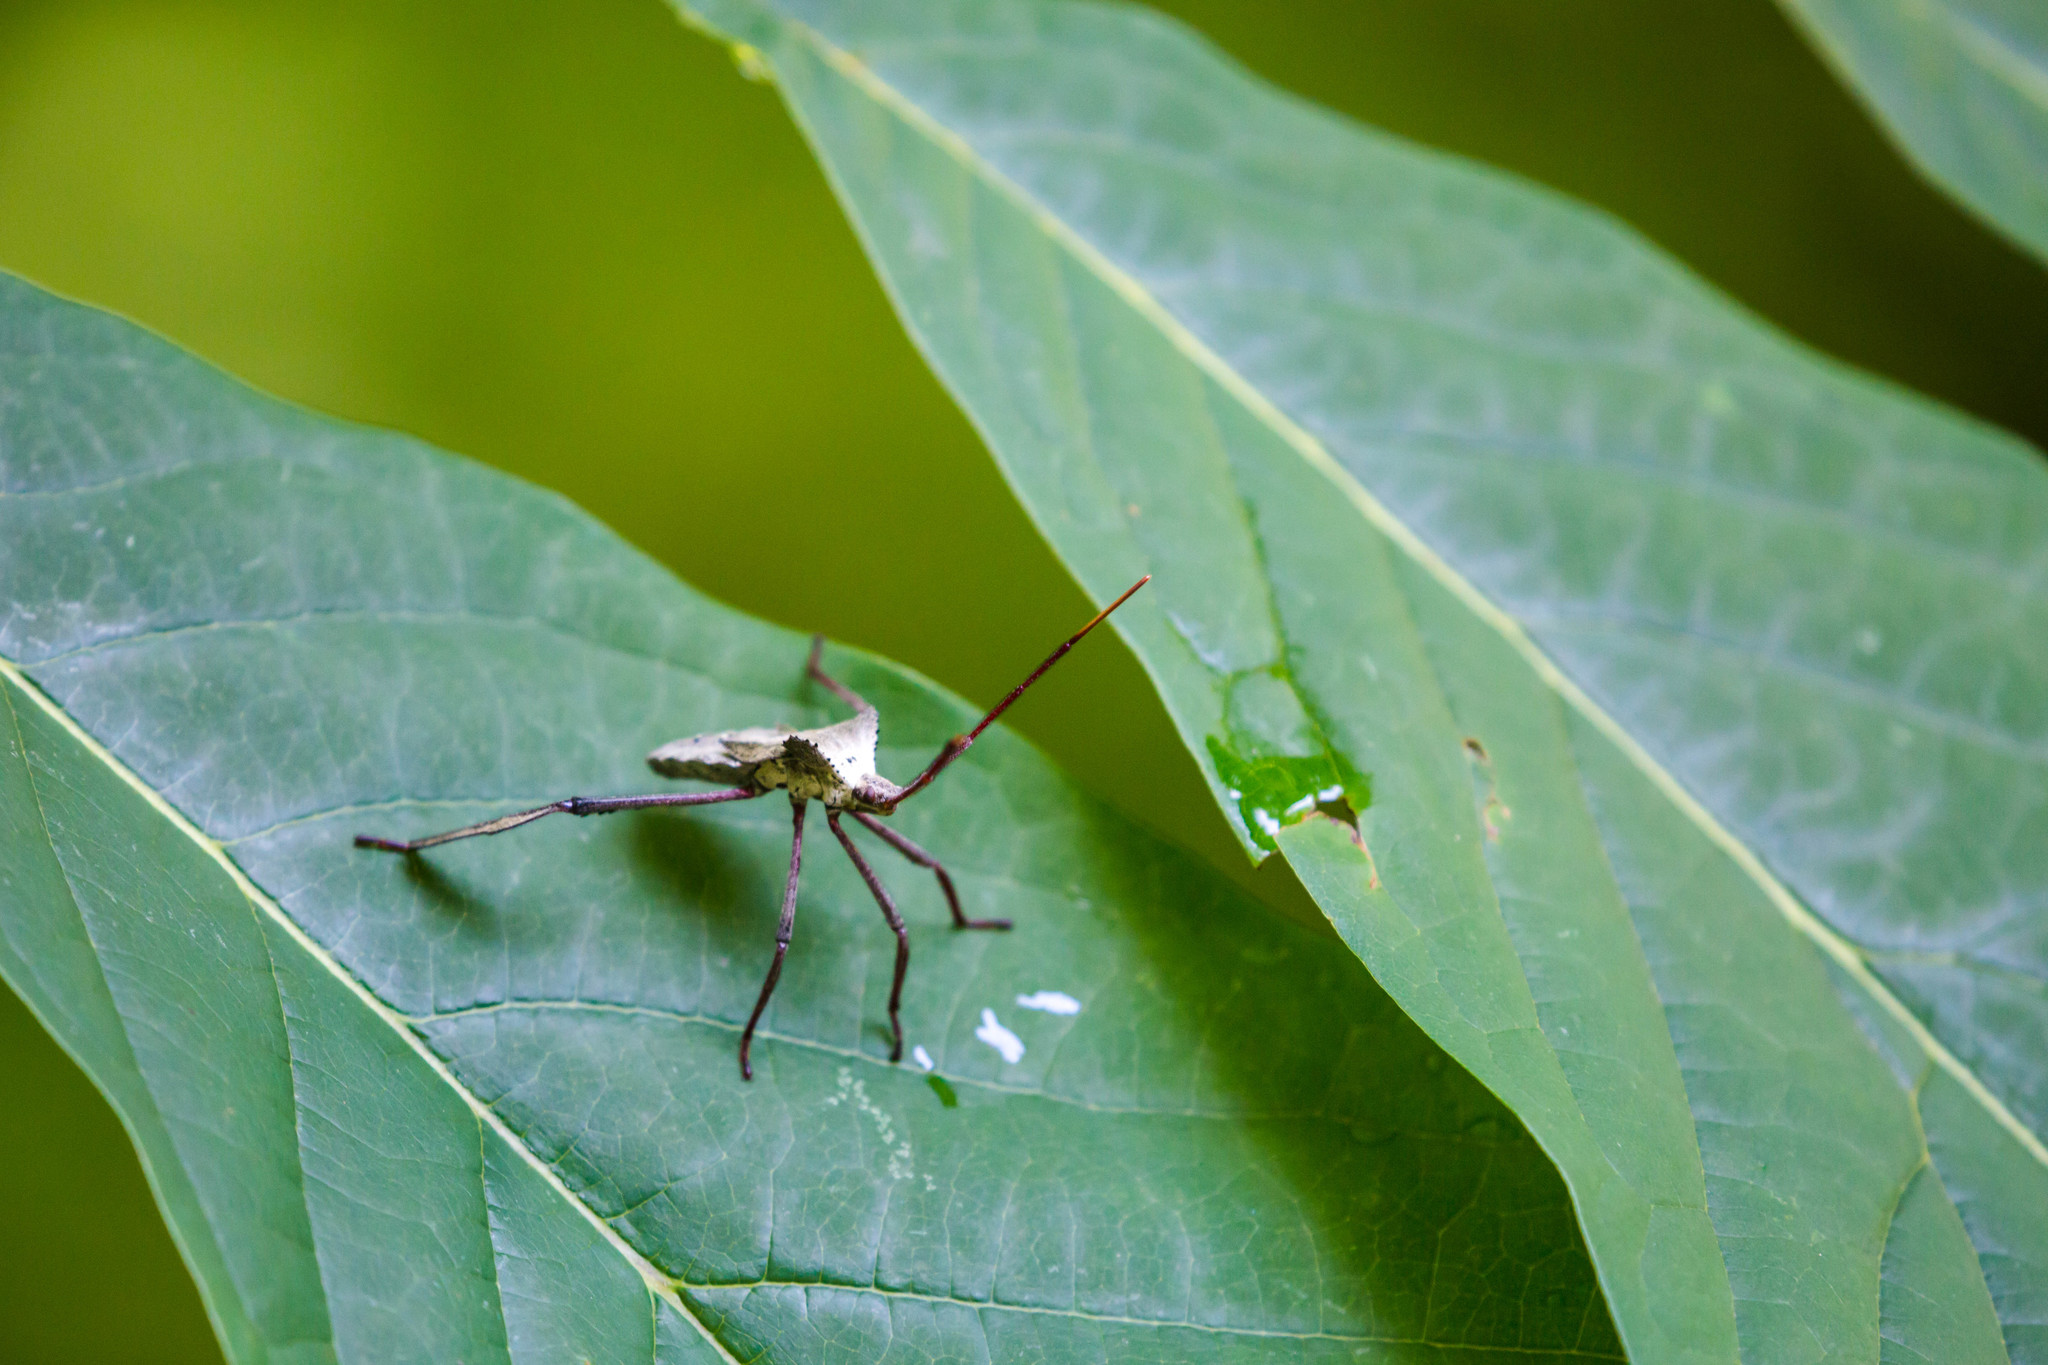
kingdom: Animalia
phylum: Arthropoda
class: Insecta
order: Hemiptera
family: Coreidae
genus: Acanthocephala
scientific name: Acanthocephala declivis
